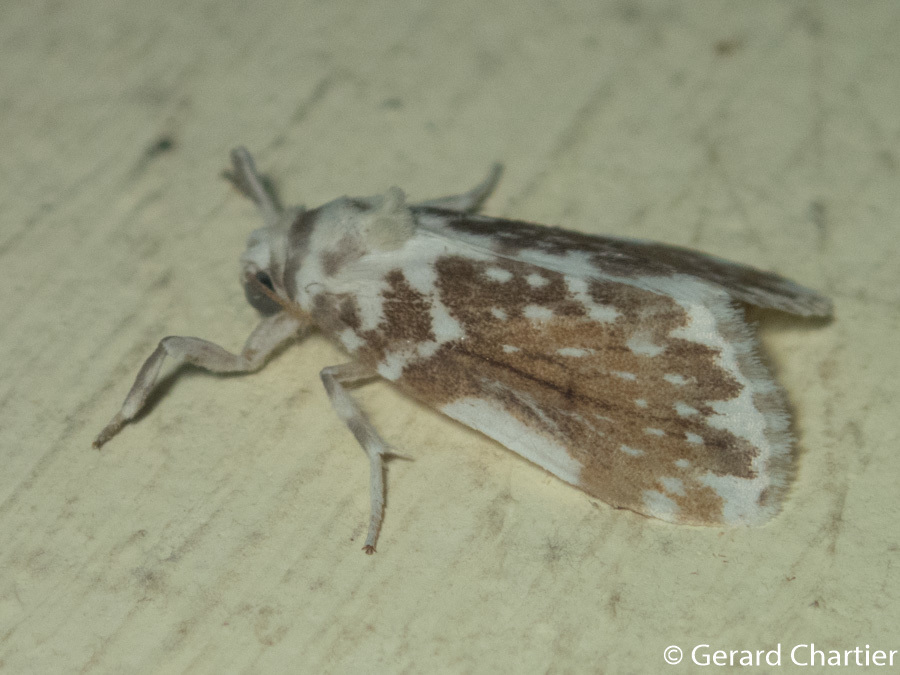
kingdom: Animalia
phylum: Arthropoda
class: Insecta
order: Lepidoptera
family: Erebidae
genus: Pseudoadites
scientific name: Pseudoadites frigida
